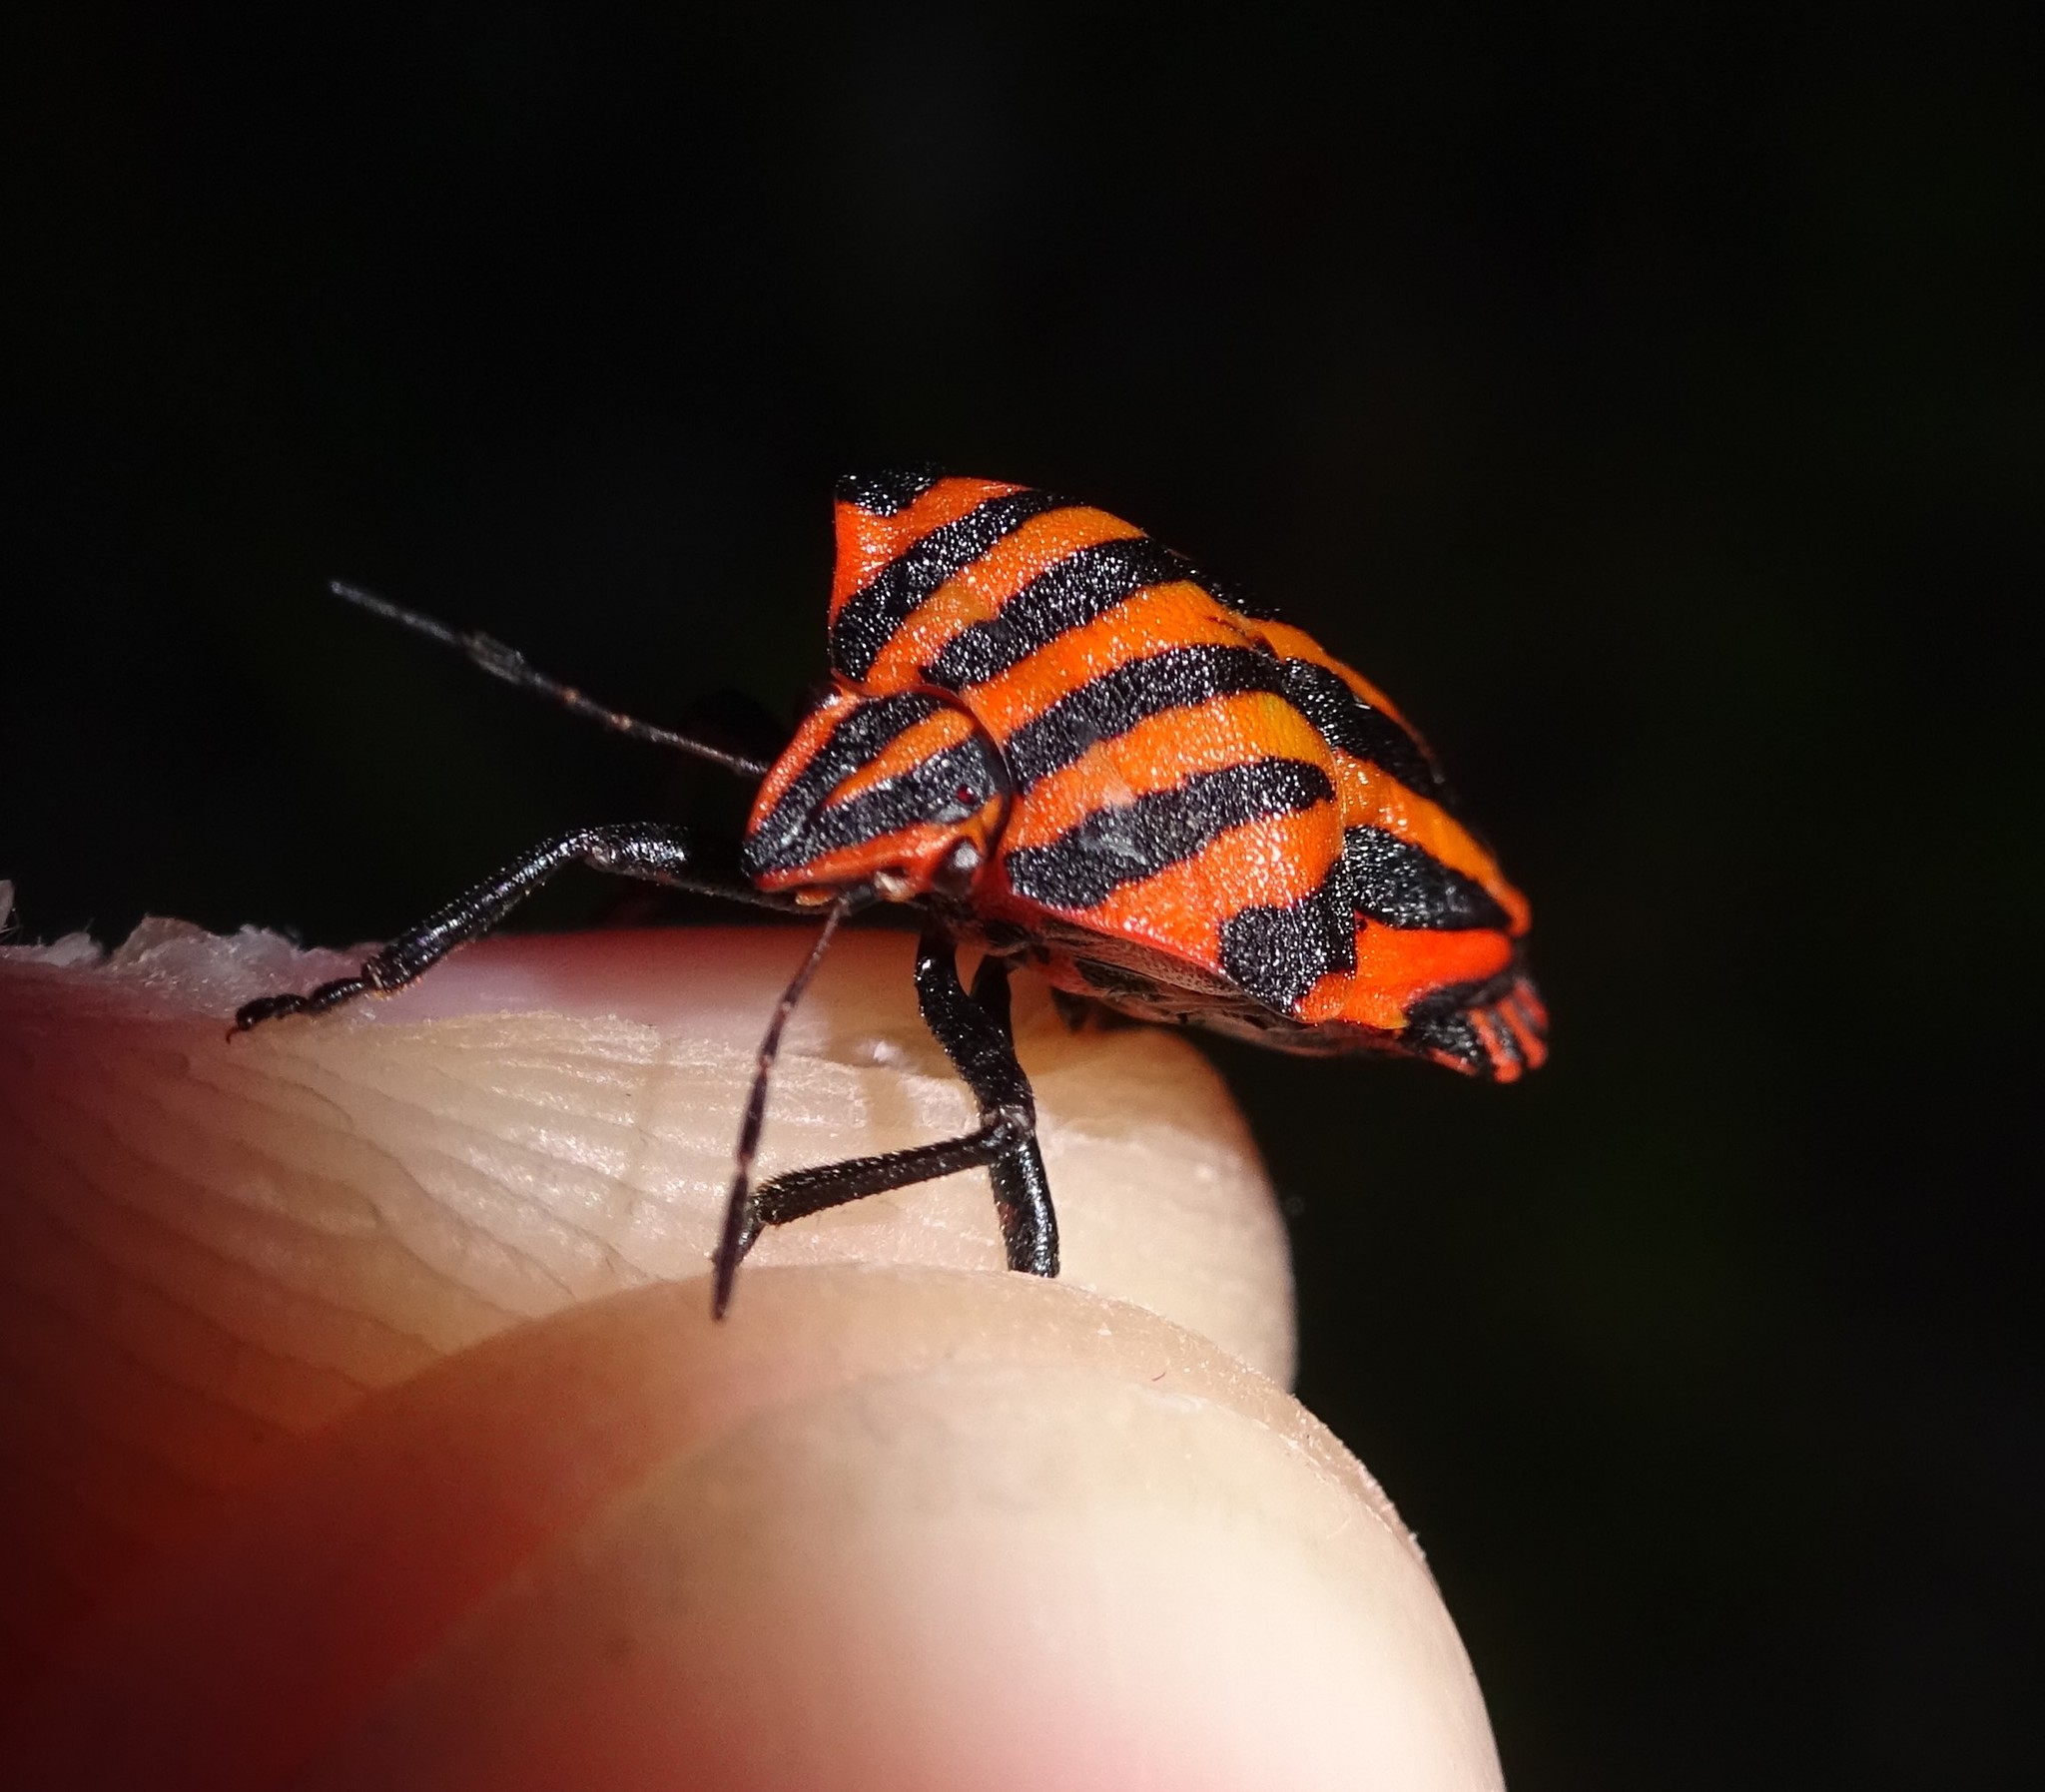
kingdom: Animalia
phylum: Arthropoda
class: Insecta
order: Hemiptera
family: Pentatomidae
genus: Graphosoma
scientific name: Graphosoma italicum
